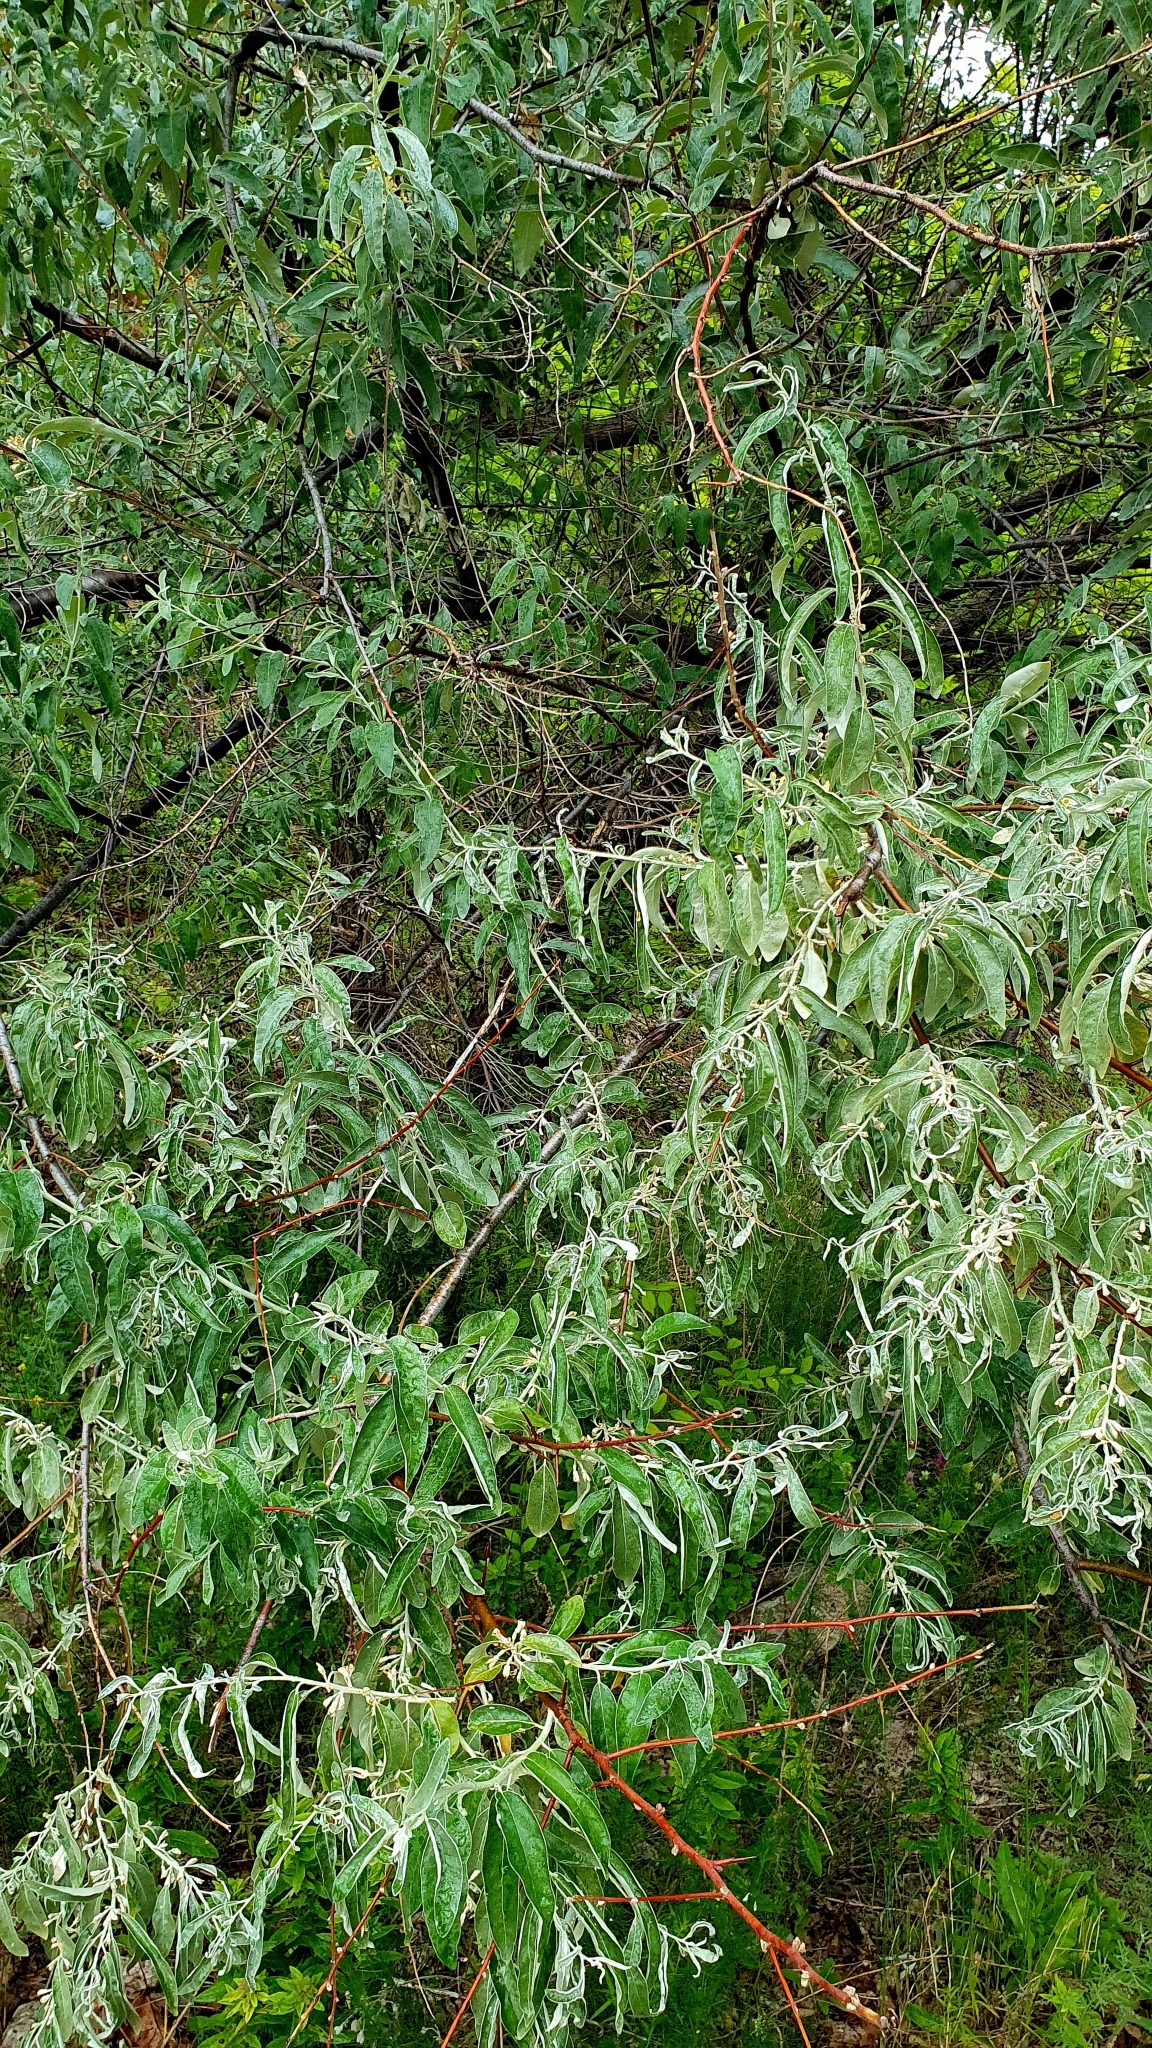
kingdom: Plantae
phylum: Tracheophyta
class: Magnoliopsida
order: Rosales
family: Elaeagnaceae
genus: Elaeagnus
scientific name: Elaeagnus angustifolia
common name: Russian olive
